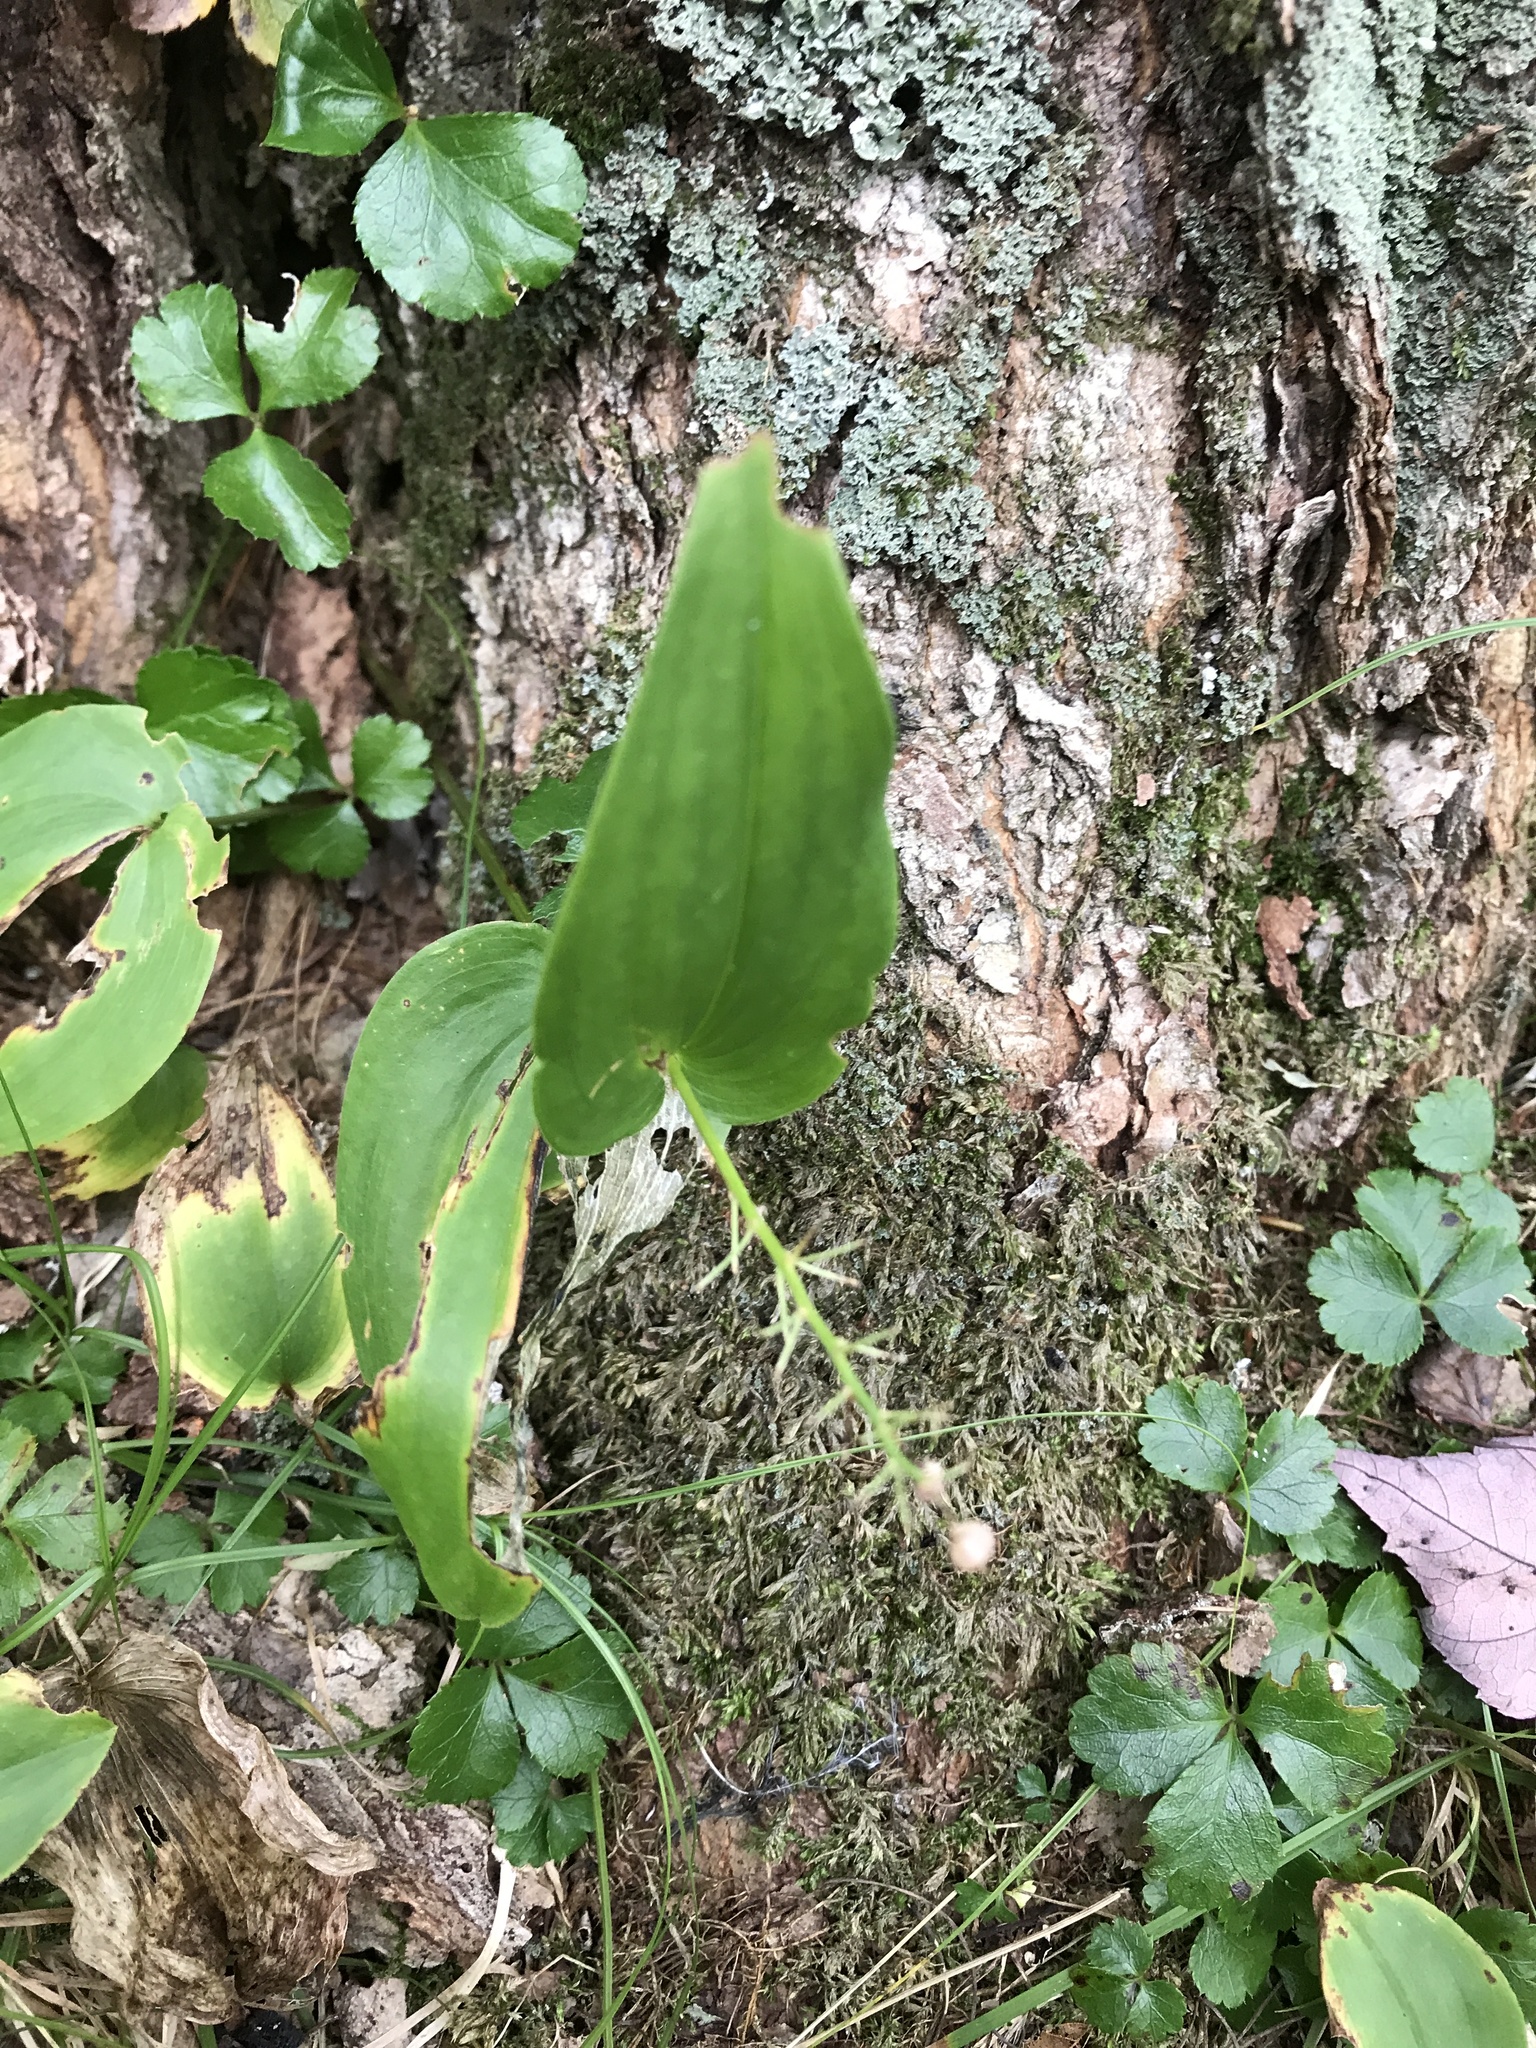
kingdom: Plantae
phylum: Tracheophyta
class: Liliopsida
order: Asparagales
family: Asparagaceae
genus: Maianthemum
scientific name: Maianthemum canadense
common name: False lily-of-the-valley
